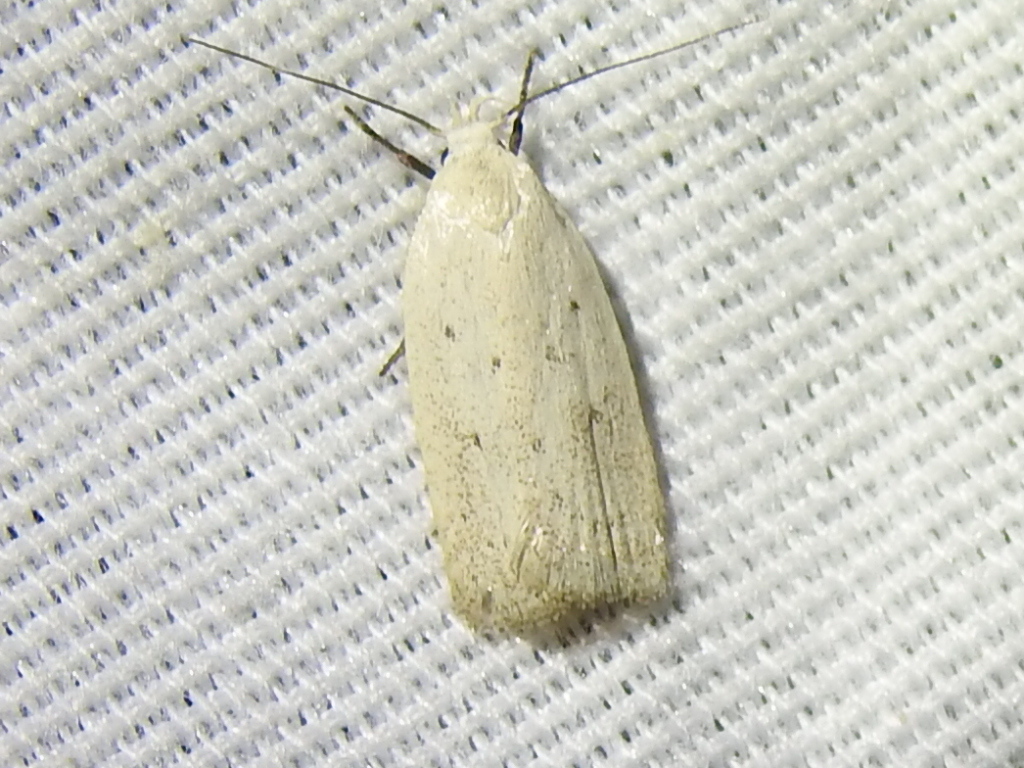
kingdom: Animalia
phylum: Arthropoda
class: Insecta
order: Lepidoptera
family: Oecophoridae
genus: Inga
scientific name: Inga cretacea
